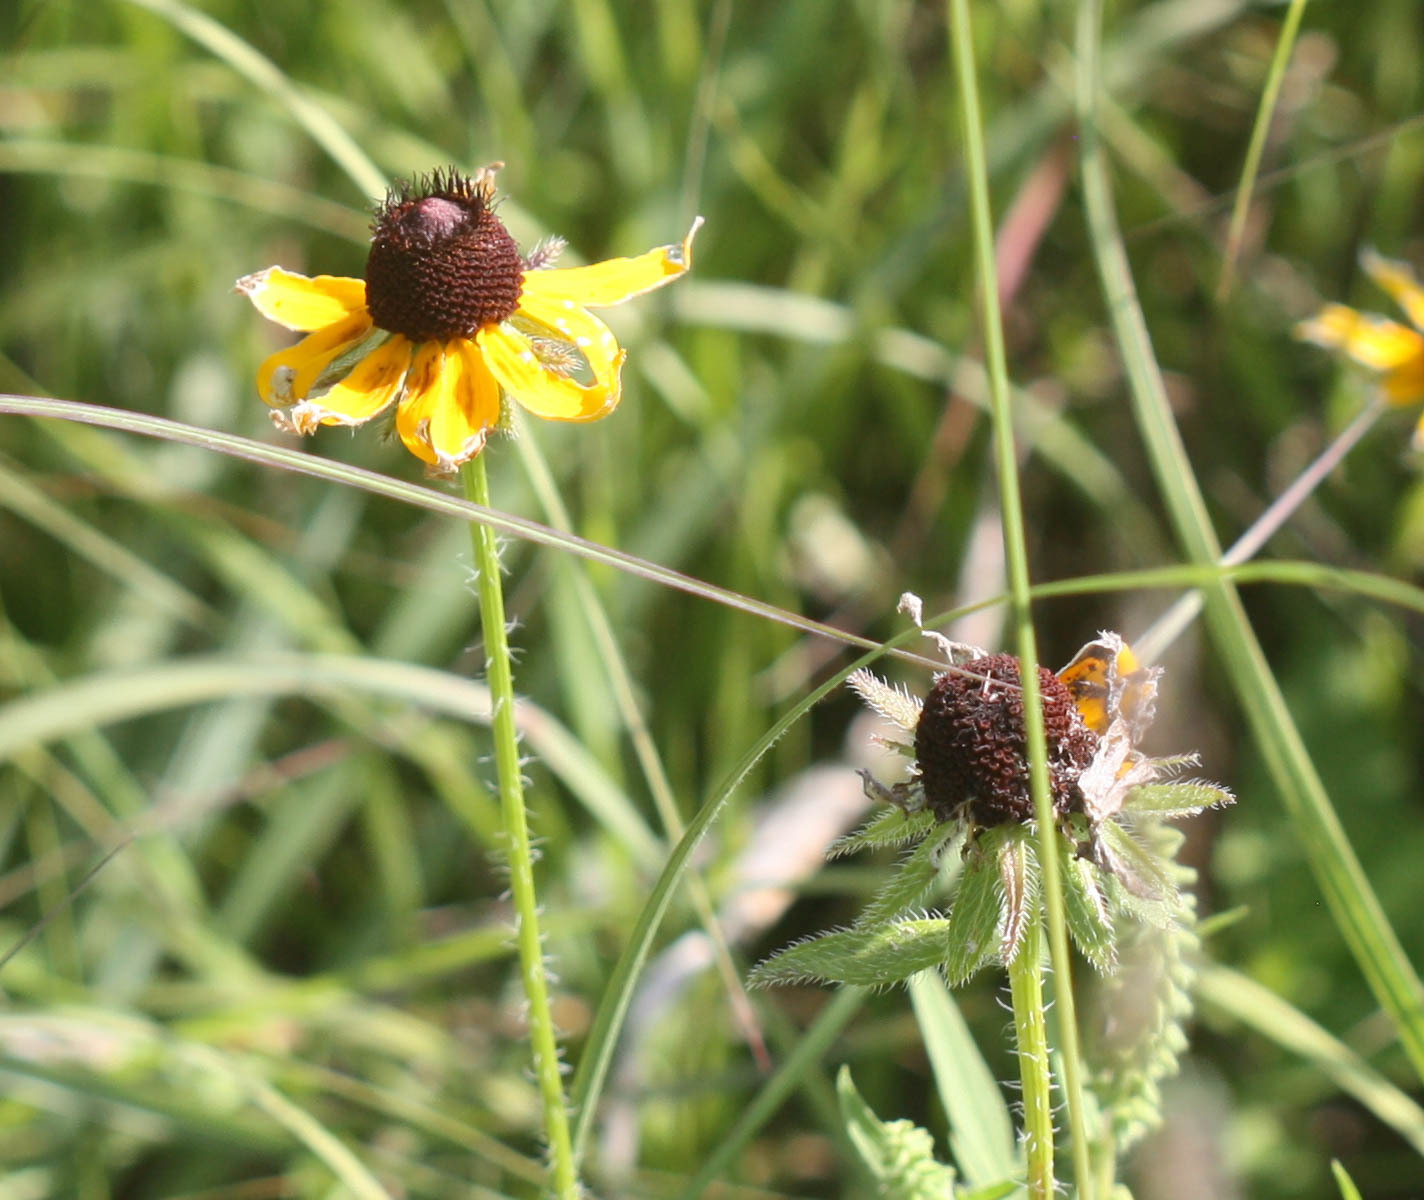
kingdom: Plantae
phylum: Tracheophyta
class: Magnoliopsida
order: Asterales
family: Asteraceae
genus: Rudbeckia
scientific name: Rudbeckia hirta
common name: Black-eyed-susan
